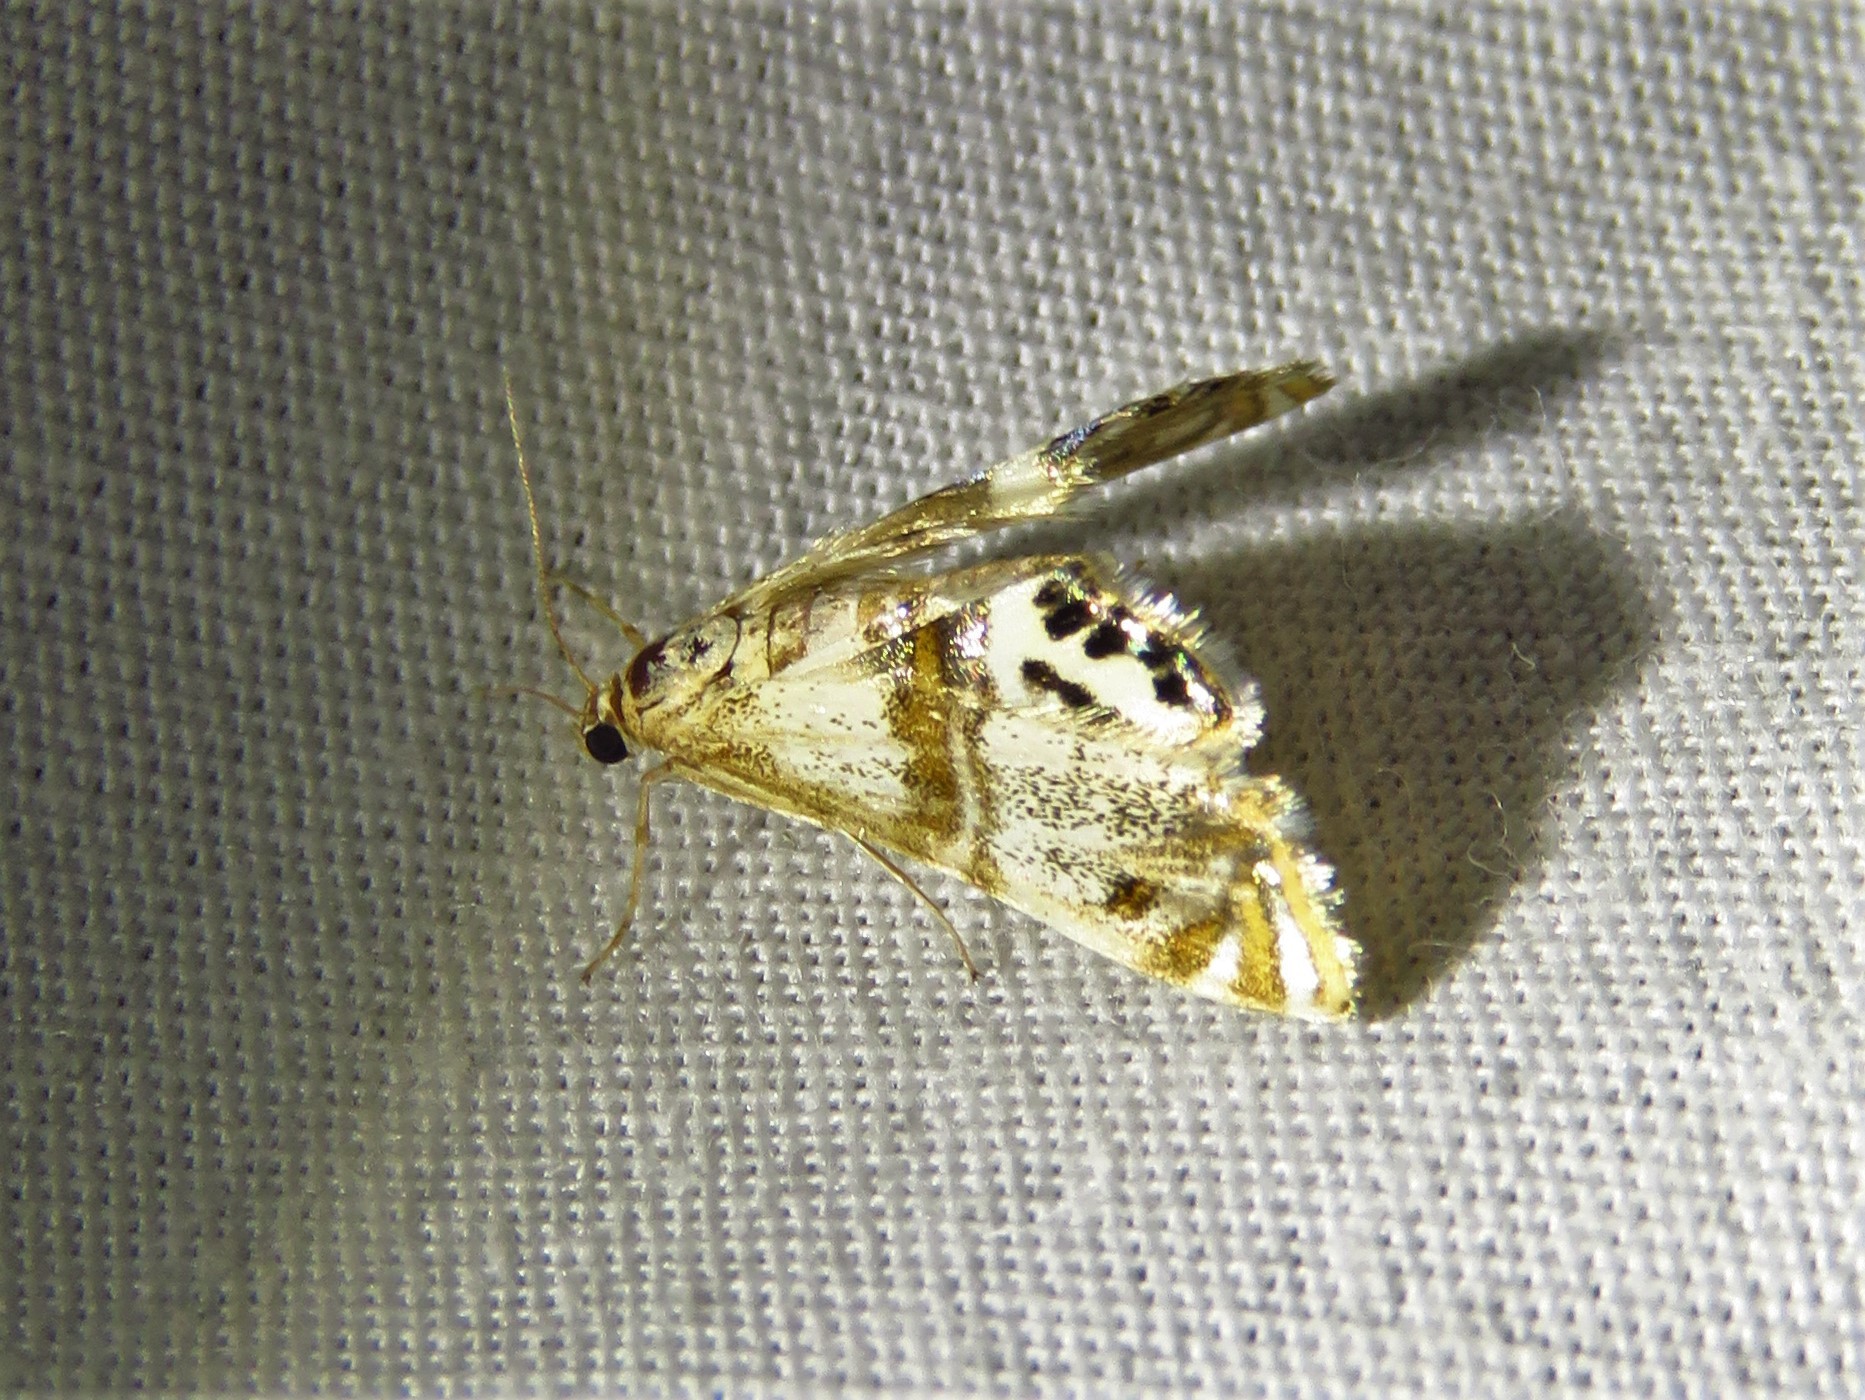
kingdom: Animalia
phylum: Arthropoda
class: Insecta
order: Lepidoptera
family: Crambidae
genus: Petrophila
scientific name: Petrophila bifascialis
